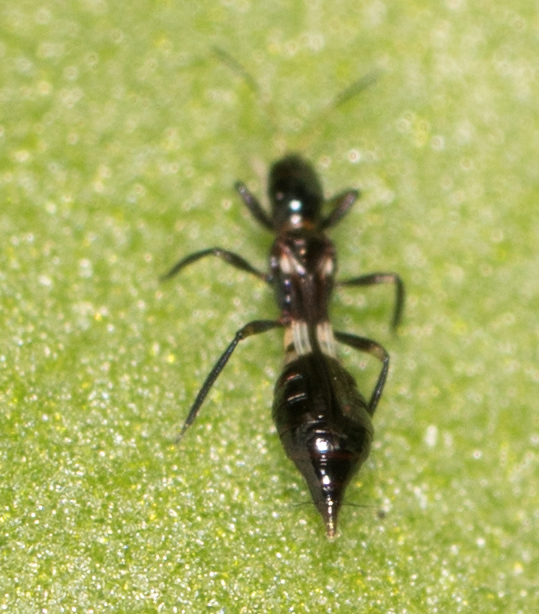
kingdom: Animalia
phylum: Arthropoda
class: Insecta
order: Thysanoptera
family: Aeolothripidae
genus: Franklinothrips
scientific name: Franklinothrips vespiformis
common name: Banded thrip
